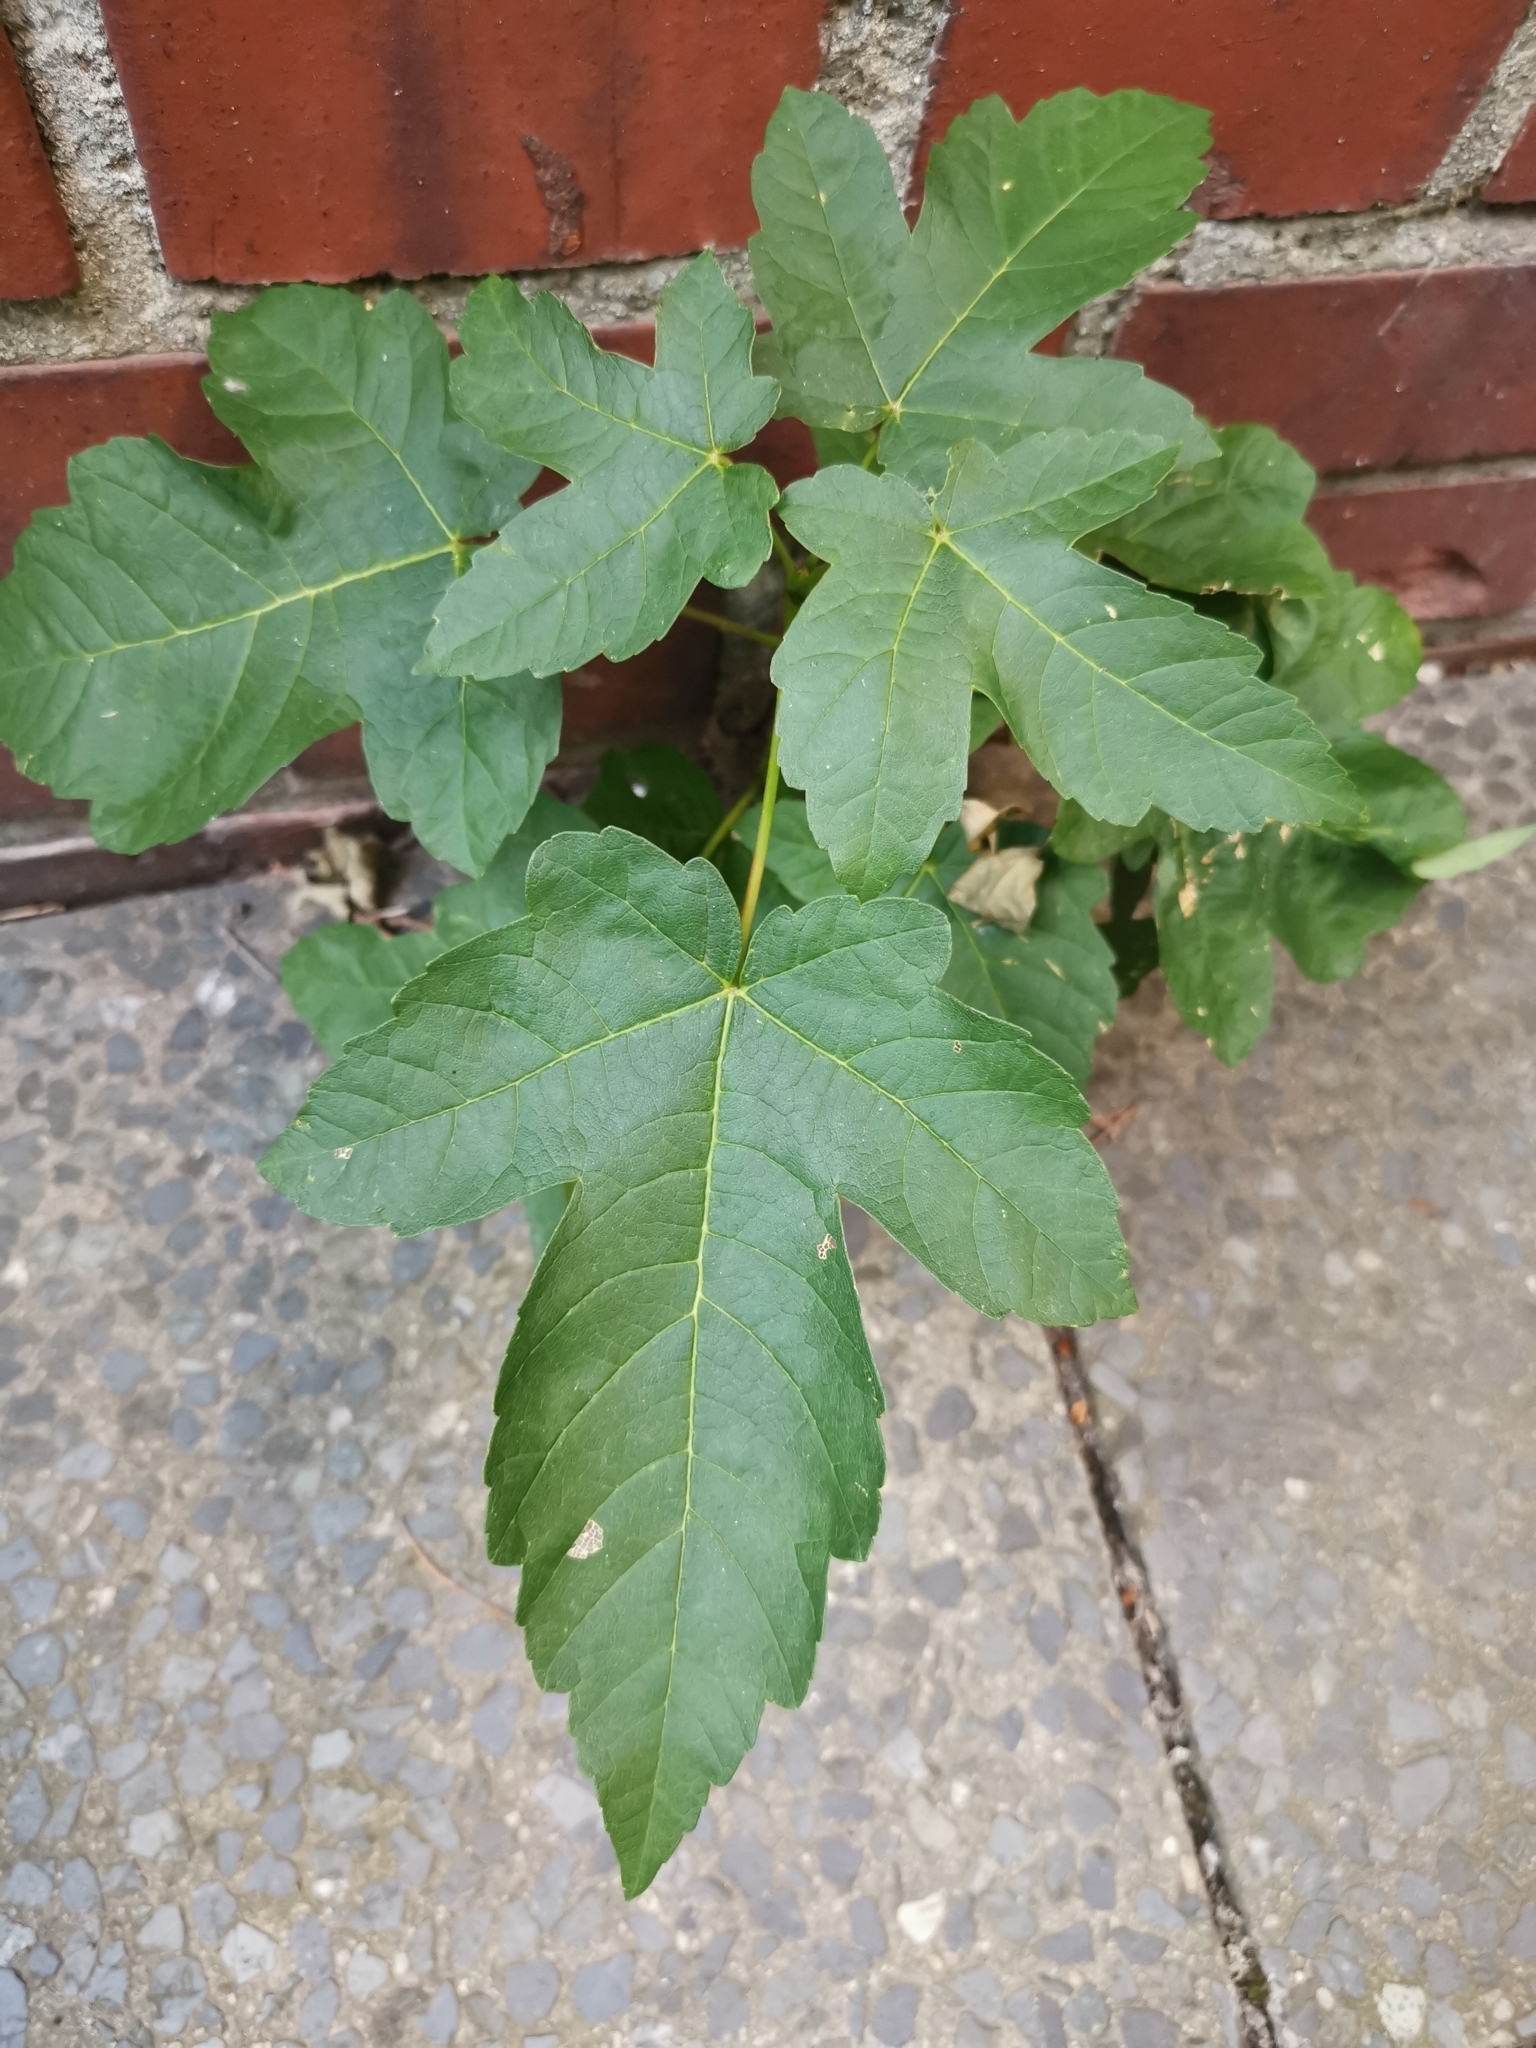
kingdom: Plantae
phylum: Tracheophyta
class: Magnoliopsida
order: Sapindales
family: Sapindaceae
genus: Acer
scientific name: Acer pseudoplatanus
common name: Sycamore
